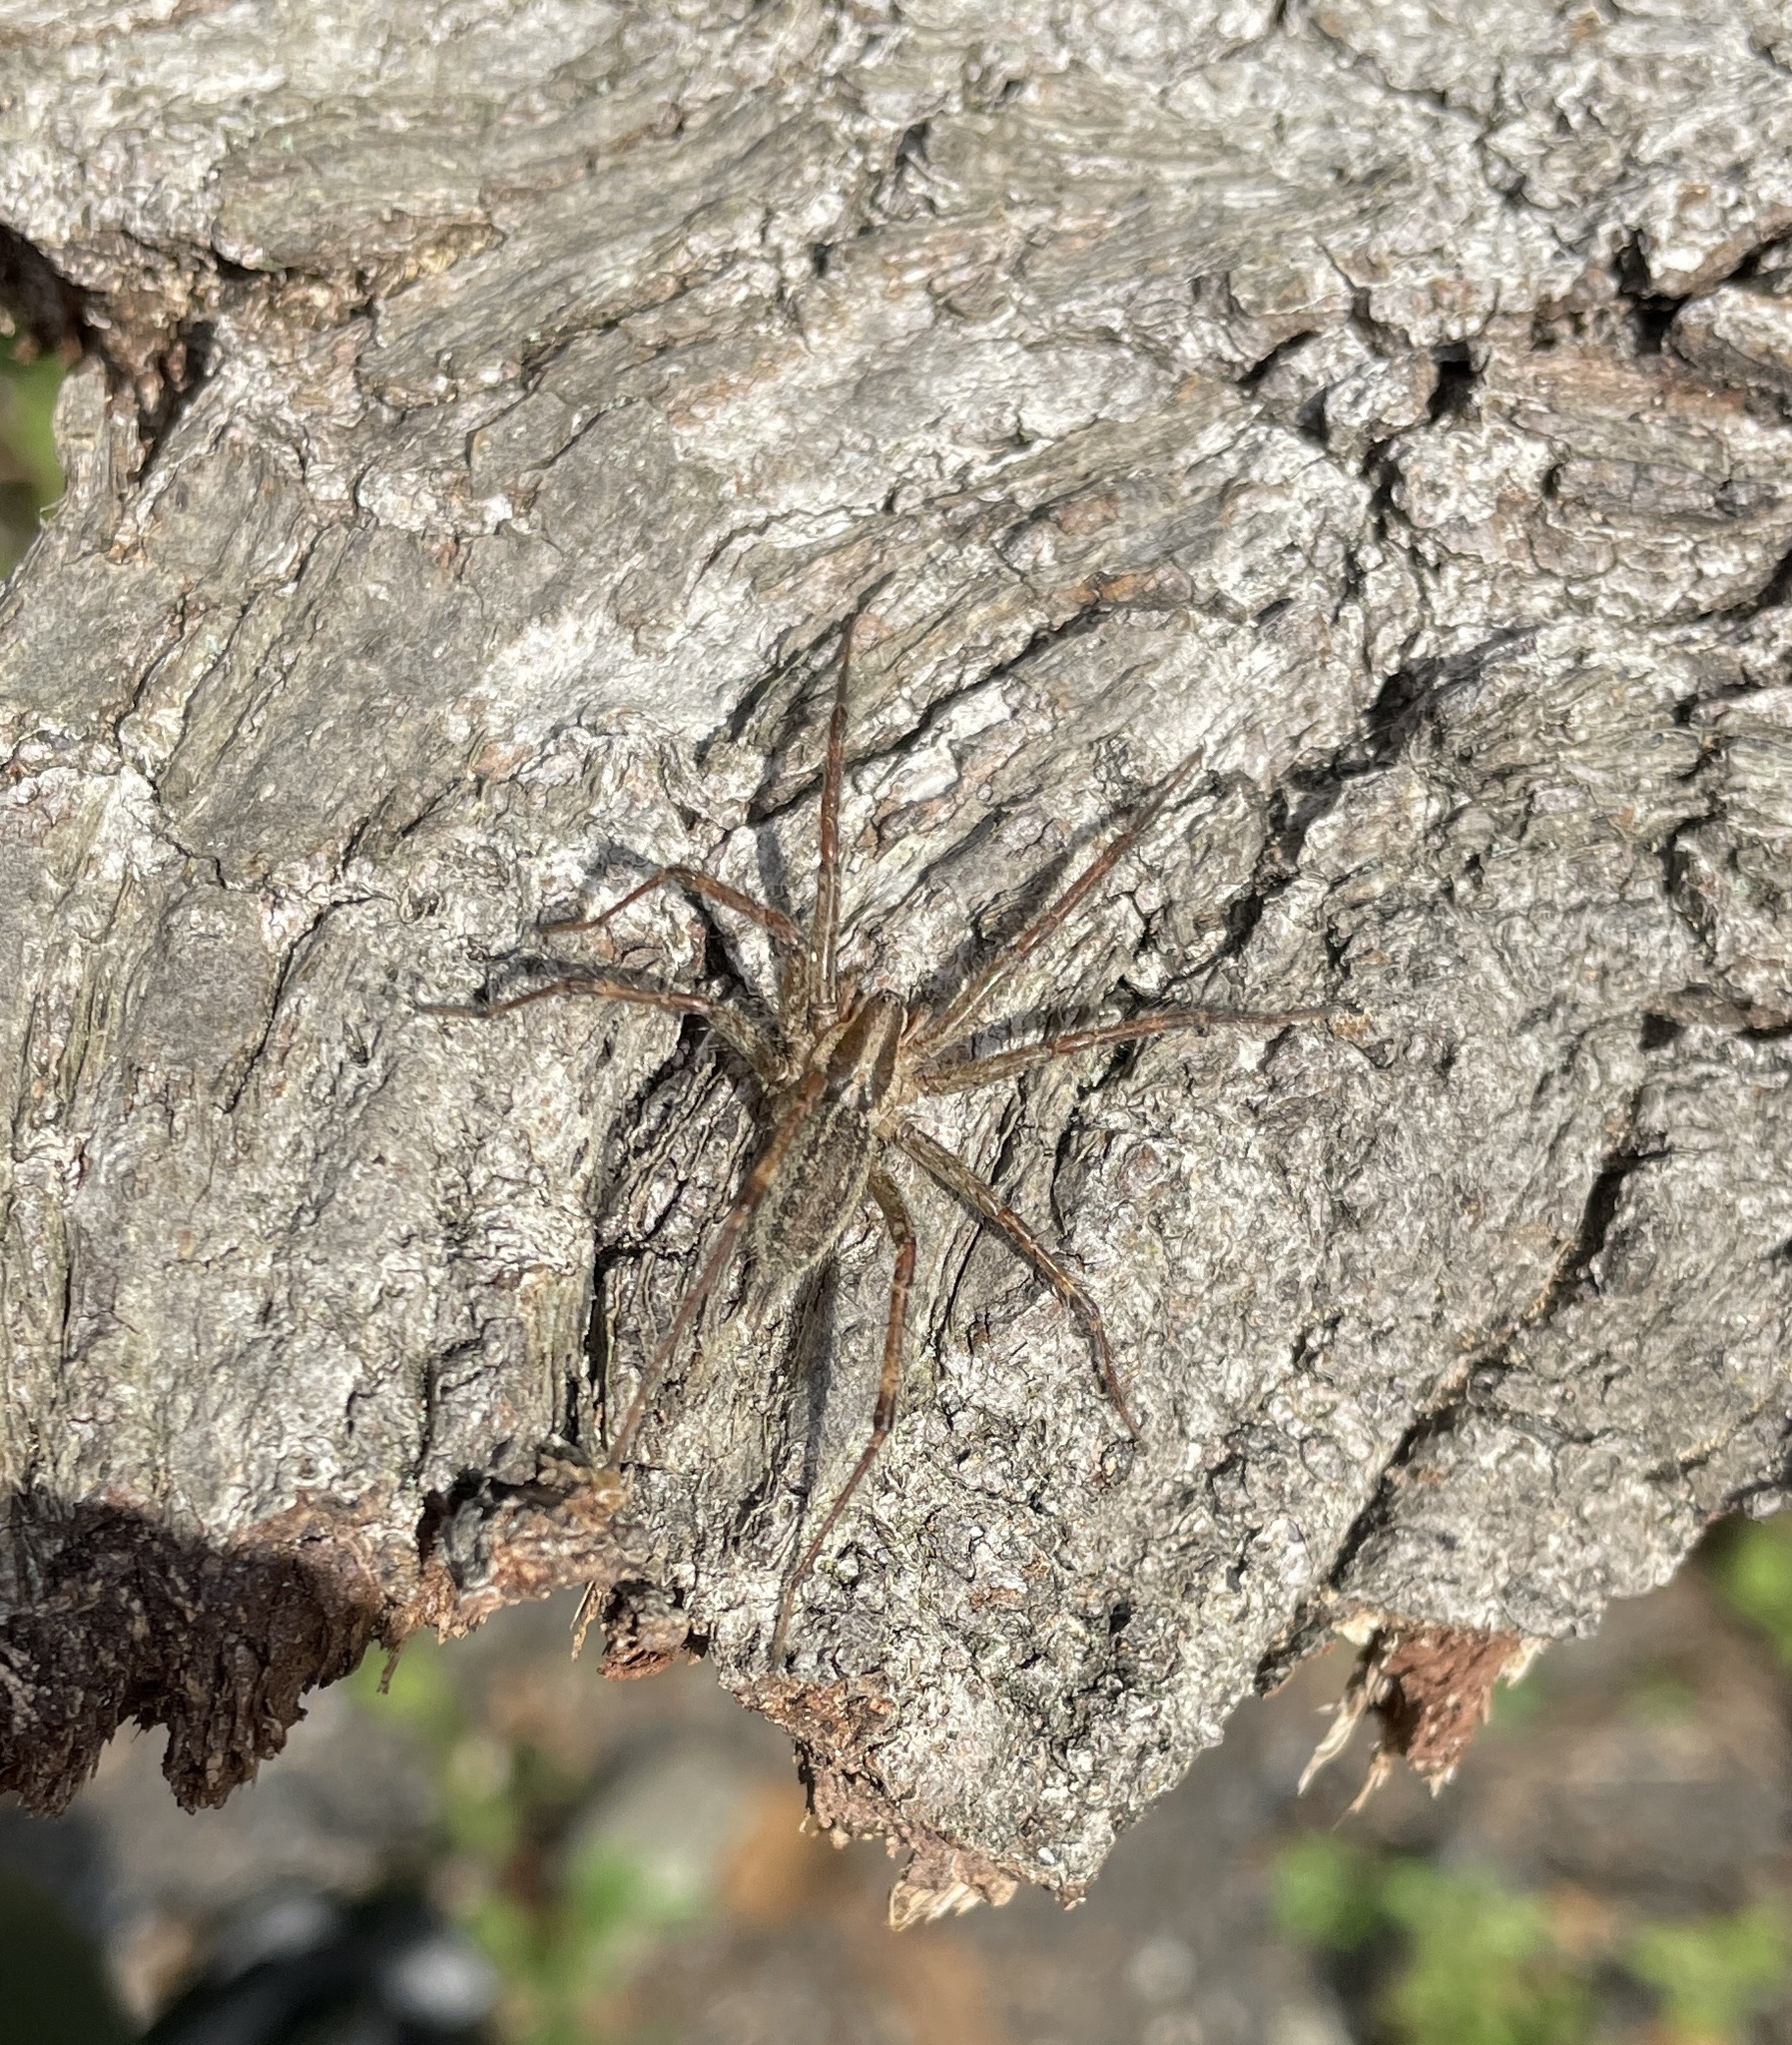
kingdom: Animalia
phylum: Arthropoda
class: Arachnida
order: Araneae
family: Agelenidae
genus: Agelenopsis
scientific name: Agelenopsis
